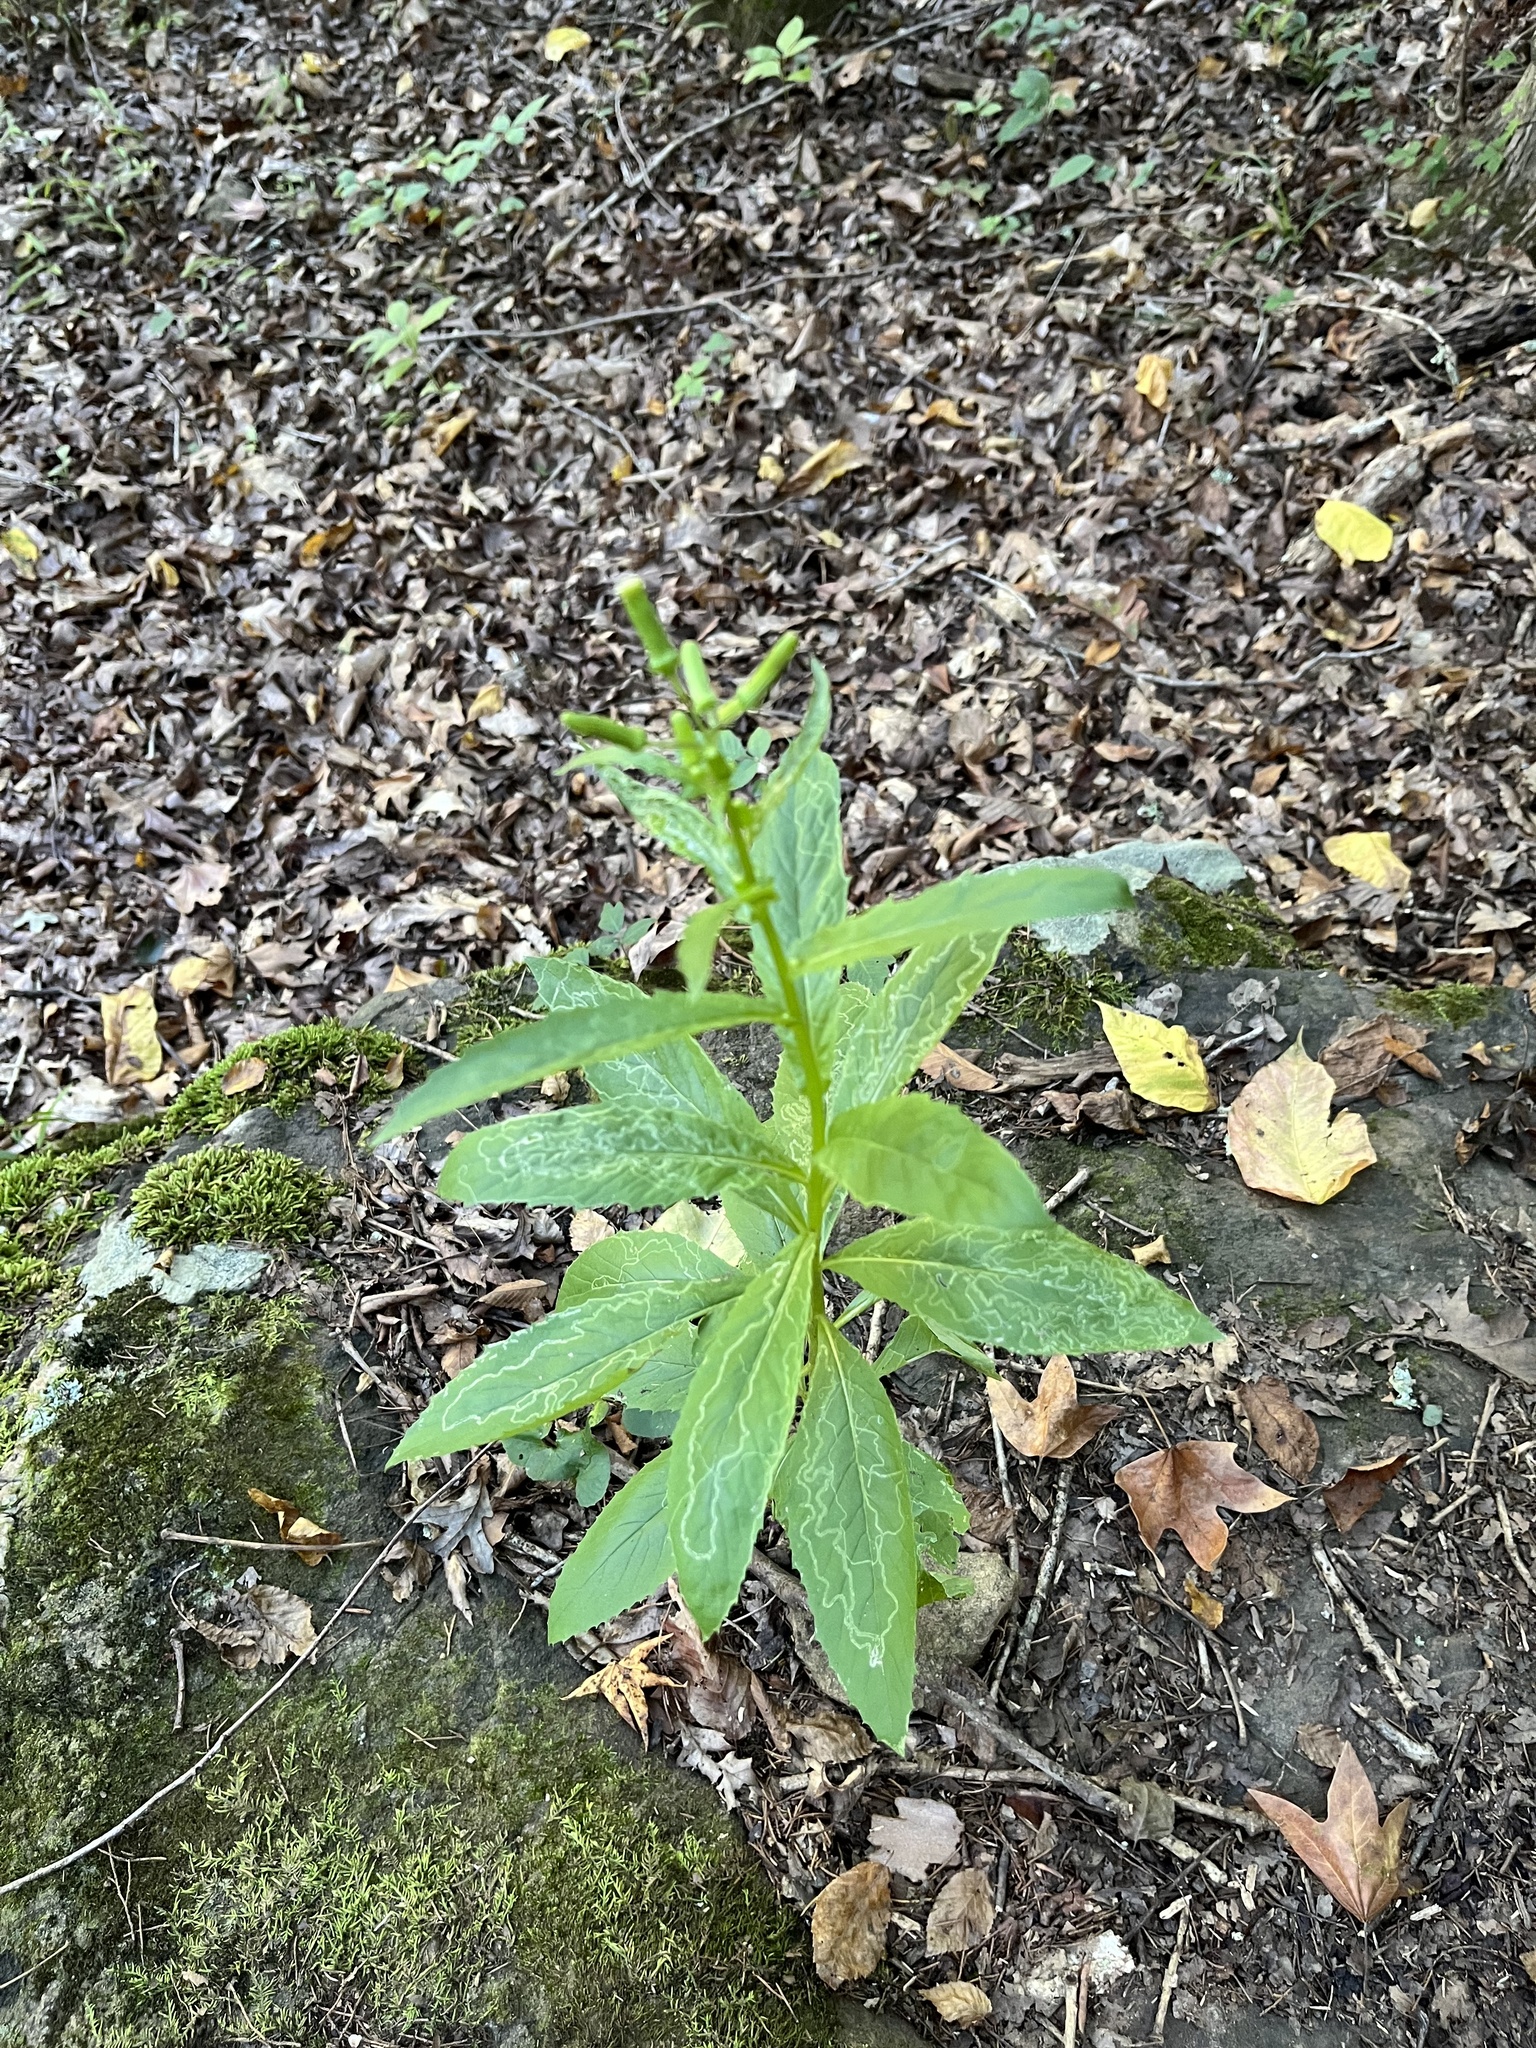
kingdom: Plantae
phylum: Tracheophyta
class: Magnoliopsida
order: Asterales
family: Asteraceae
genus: Erechtites
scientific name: Erechtites hieraciifolius
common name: American burnweed
